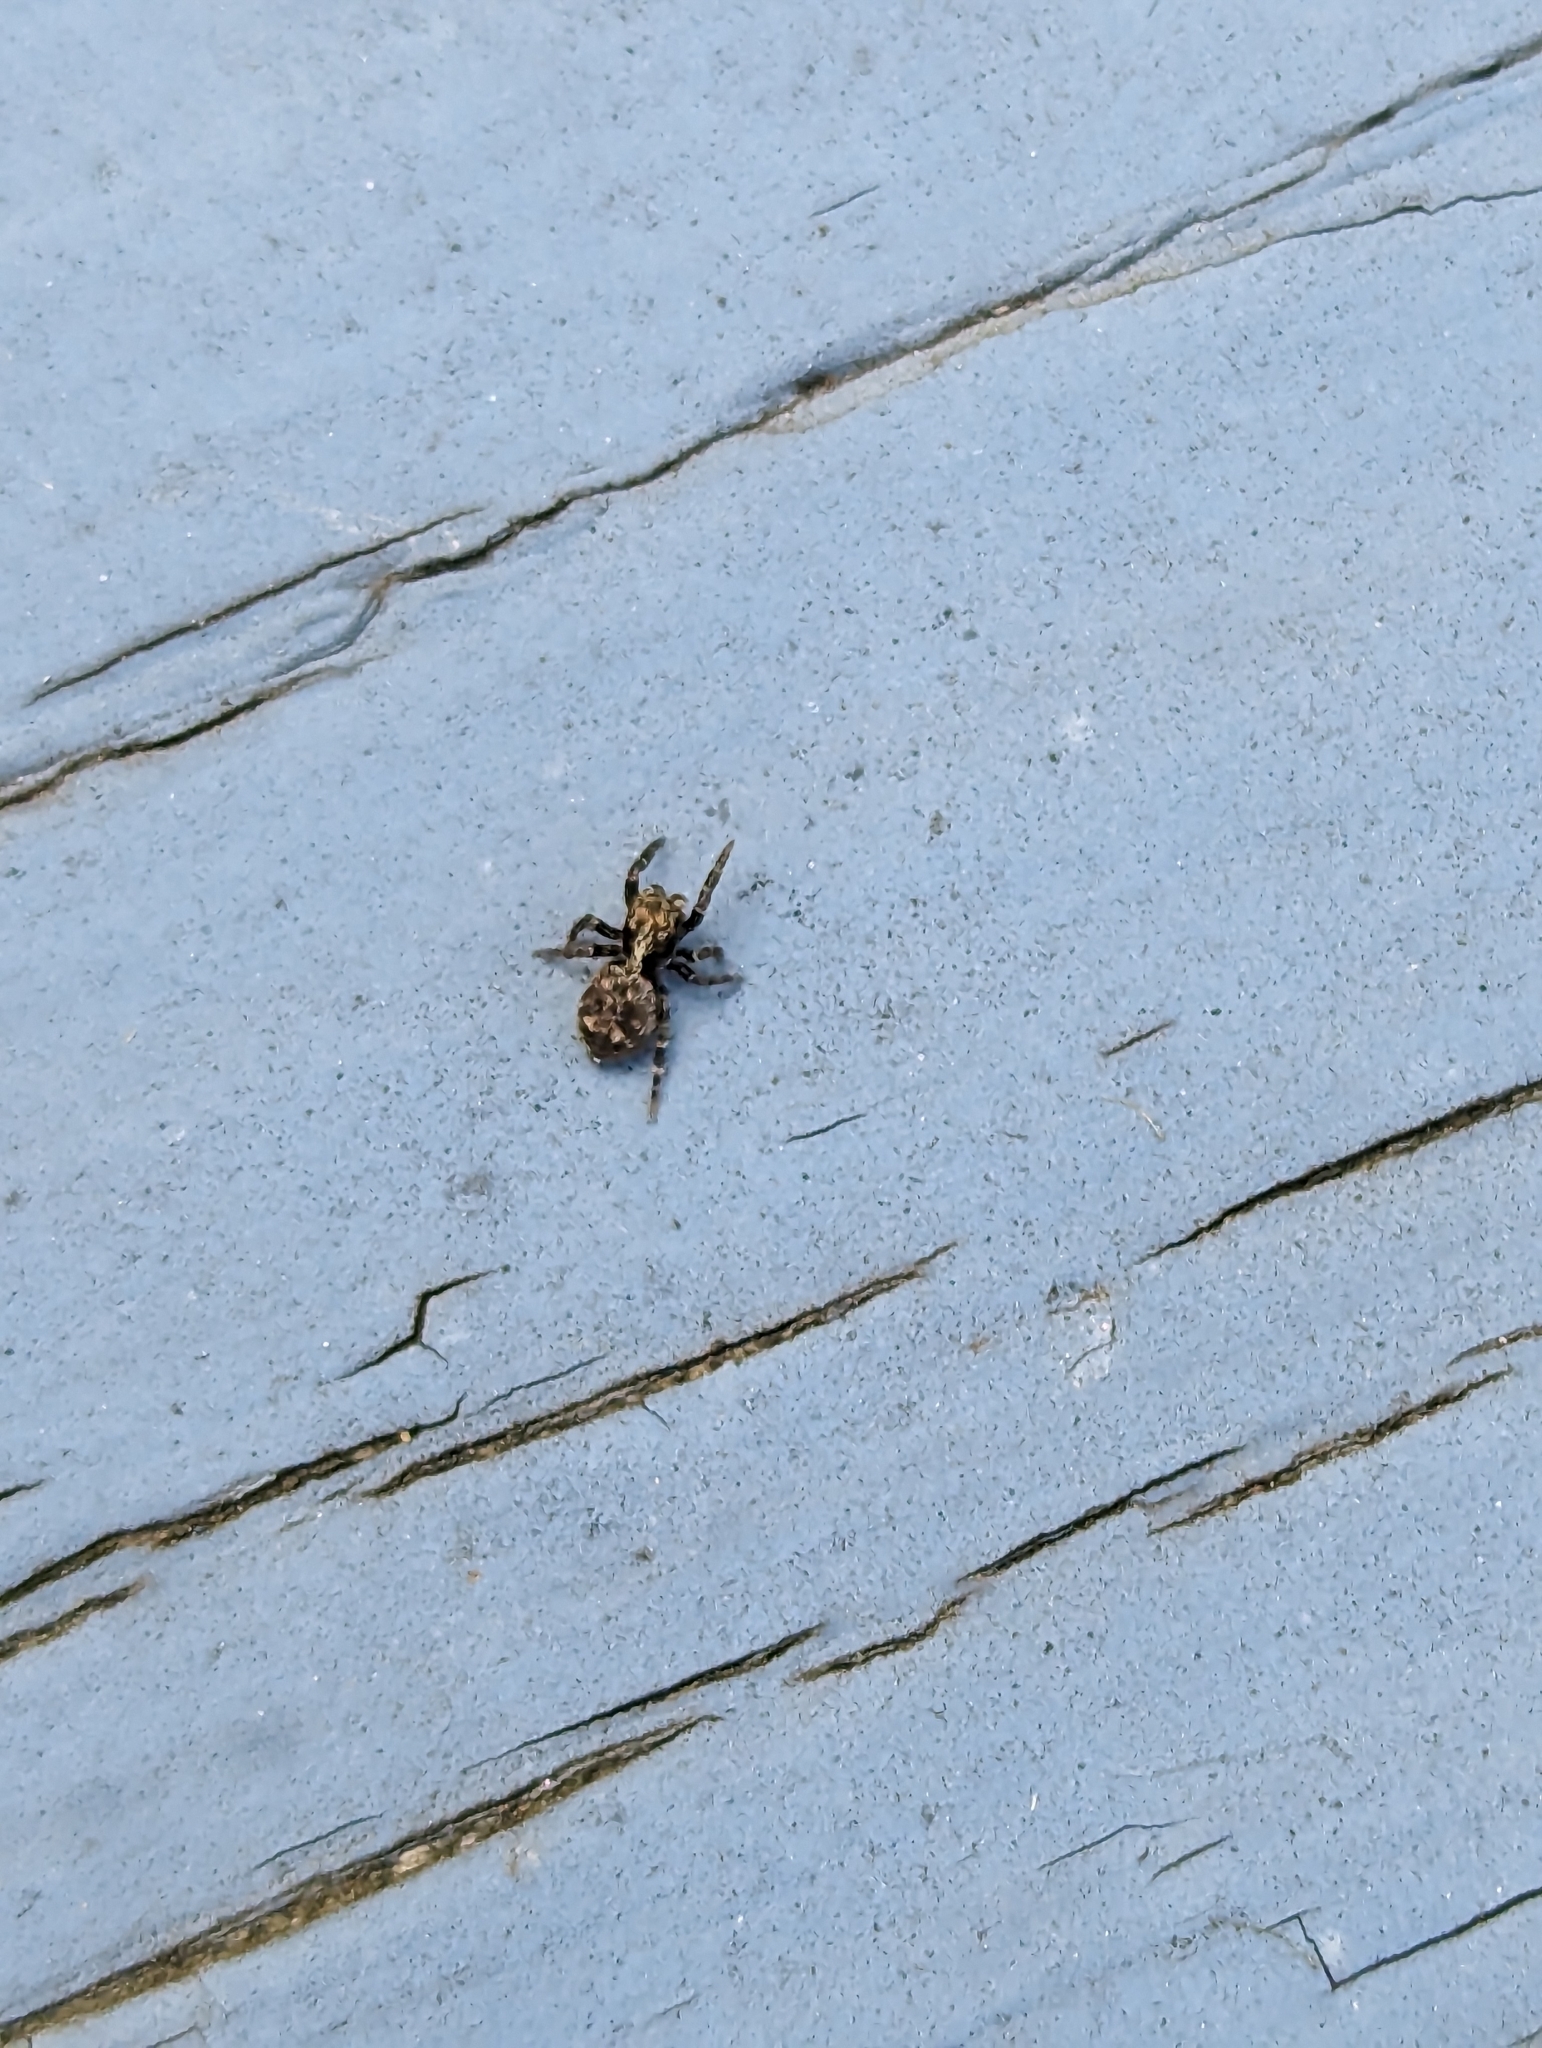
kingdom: Animalia
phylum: Arthropoda
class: Arachnida
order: Araneae
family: Salticidae
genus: Pseudeuophrys
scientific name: Pseudeuophrys erratica
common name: Jumping spider
